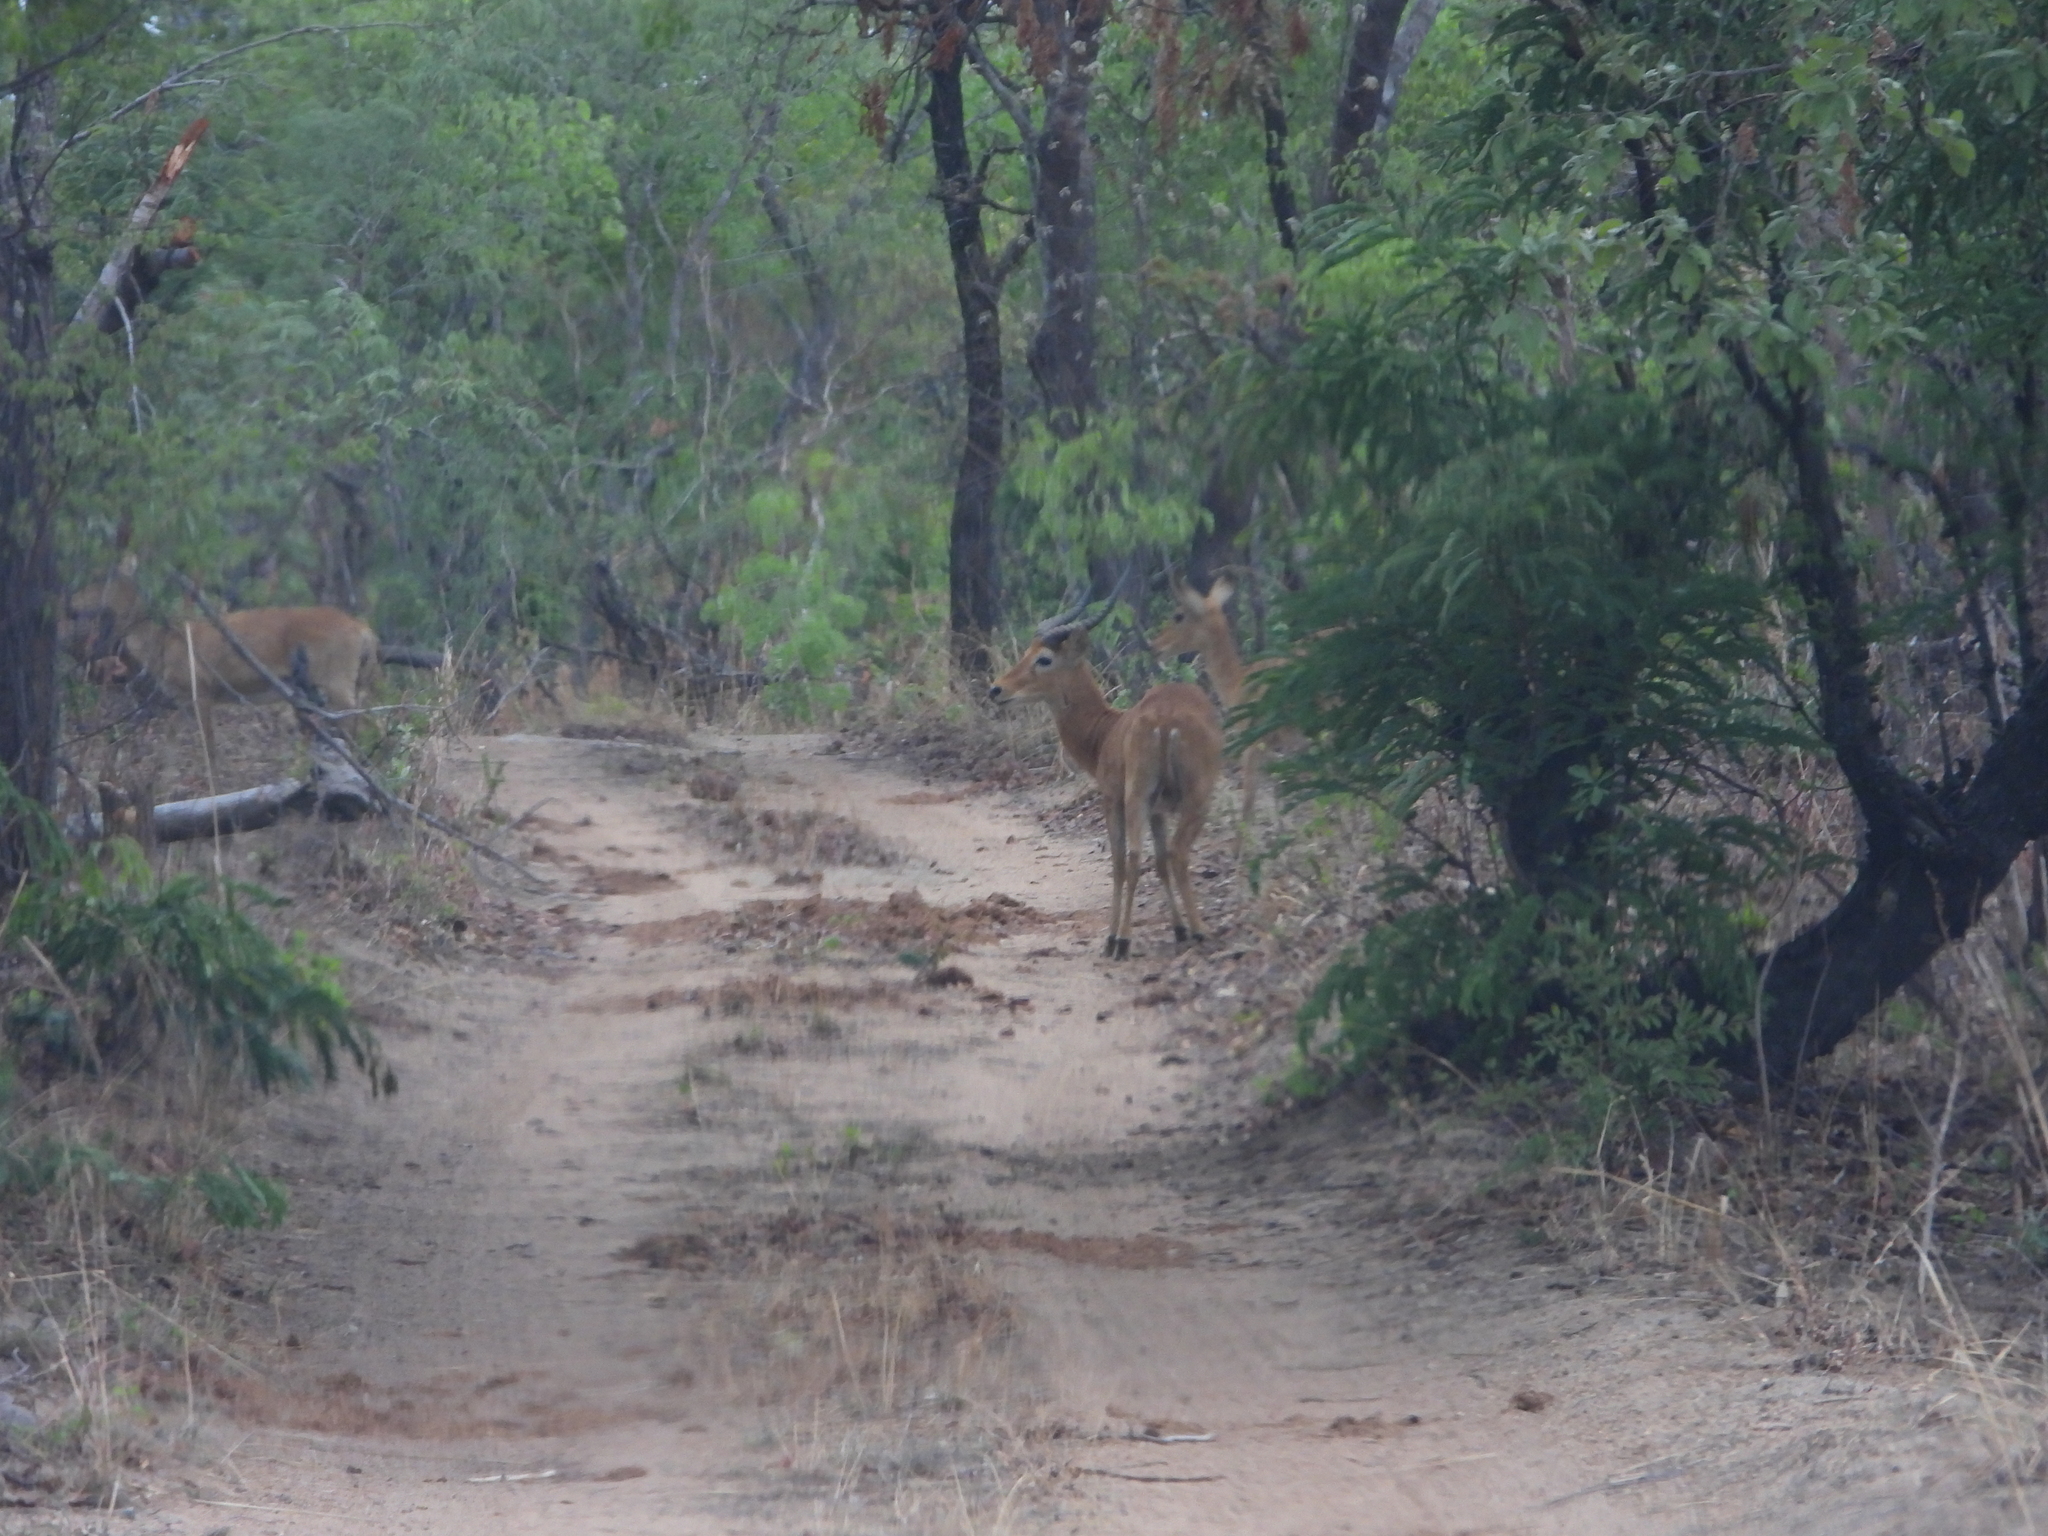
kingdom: Animalia
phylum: Chordata
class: Mammalia
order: Artiodactyla
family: Bovidae
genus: Kobus
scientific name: Kobus vardonii
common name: Puku
